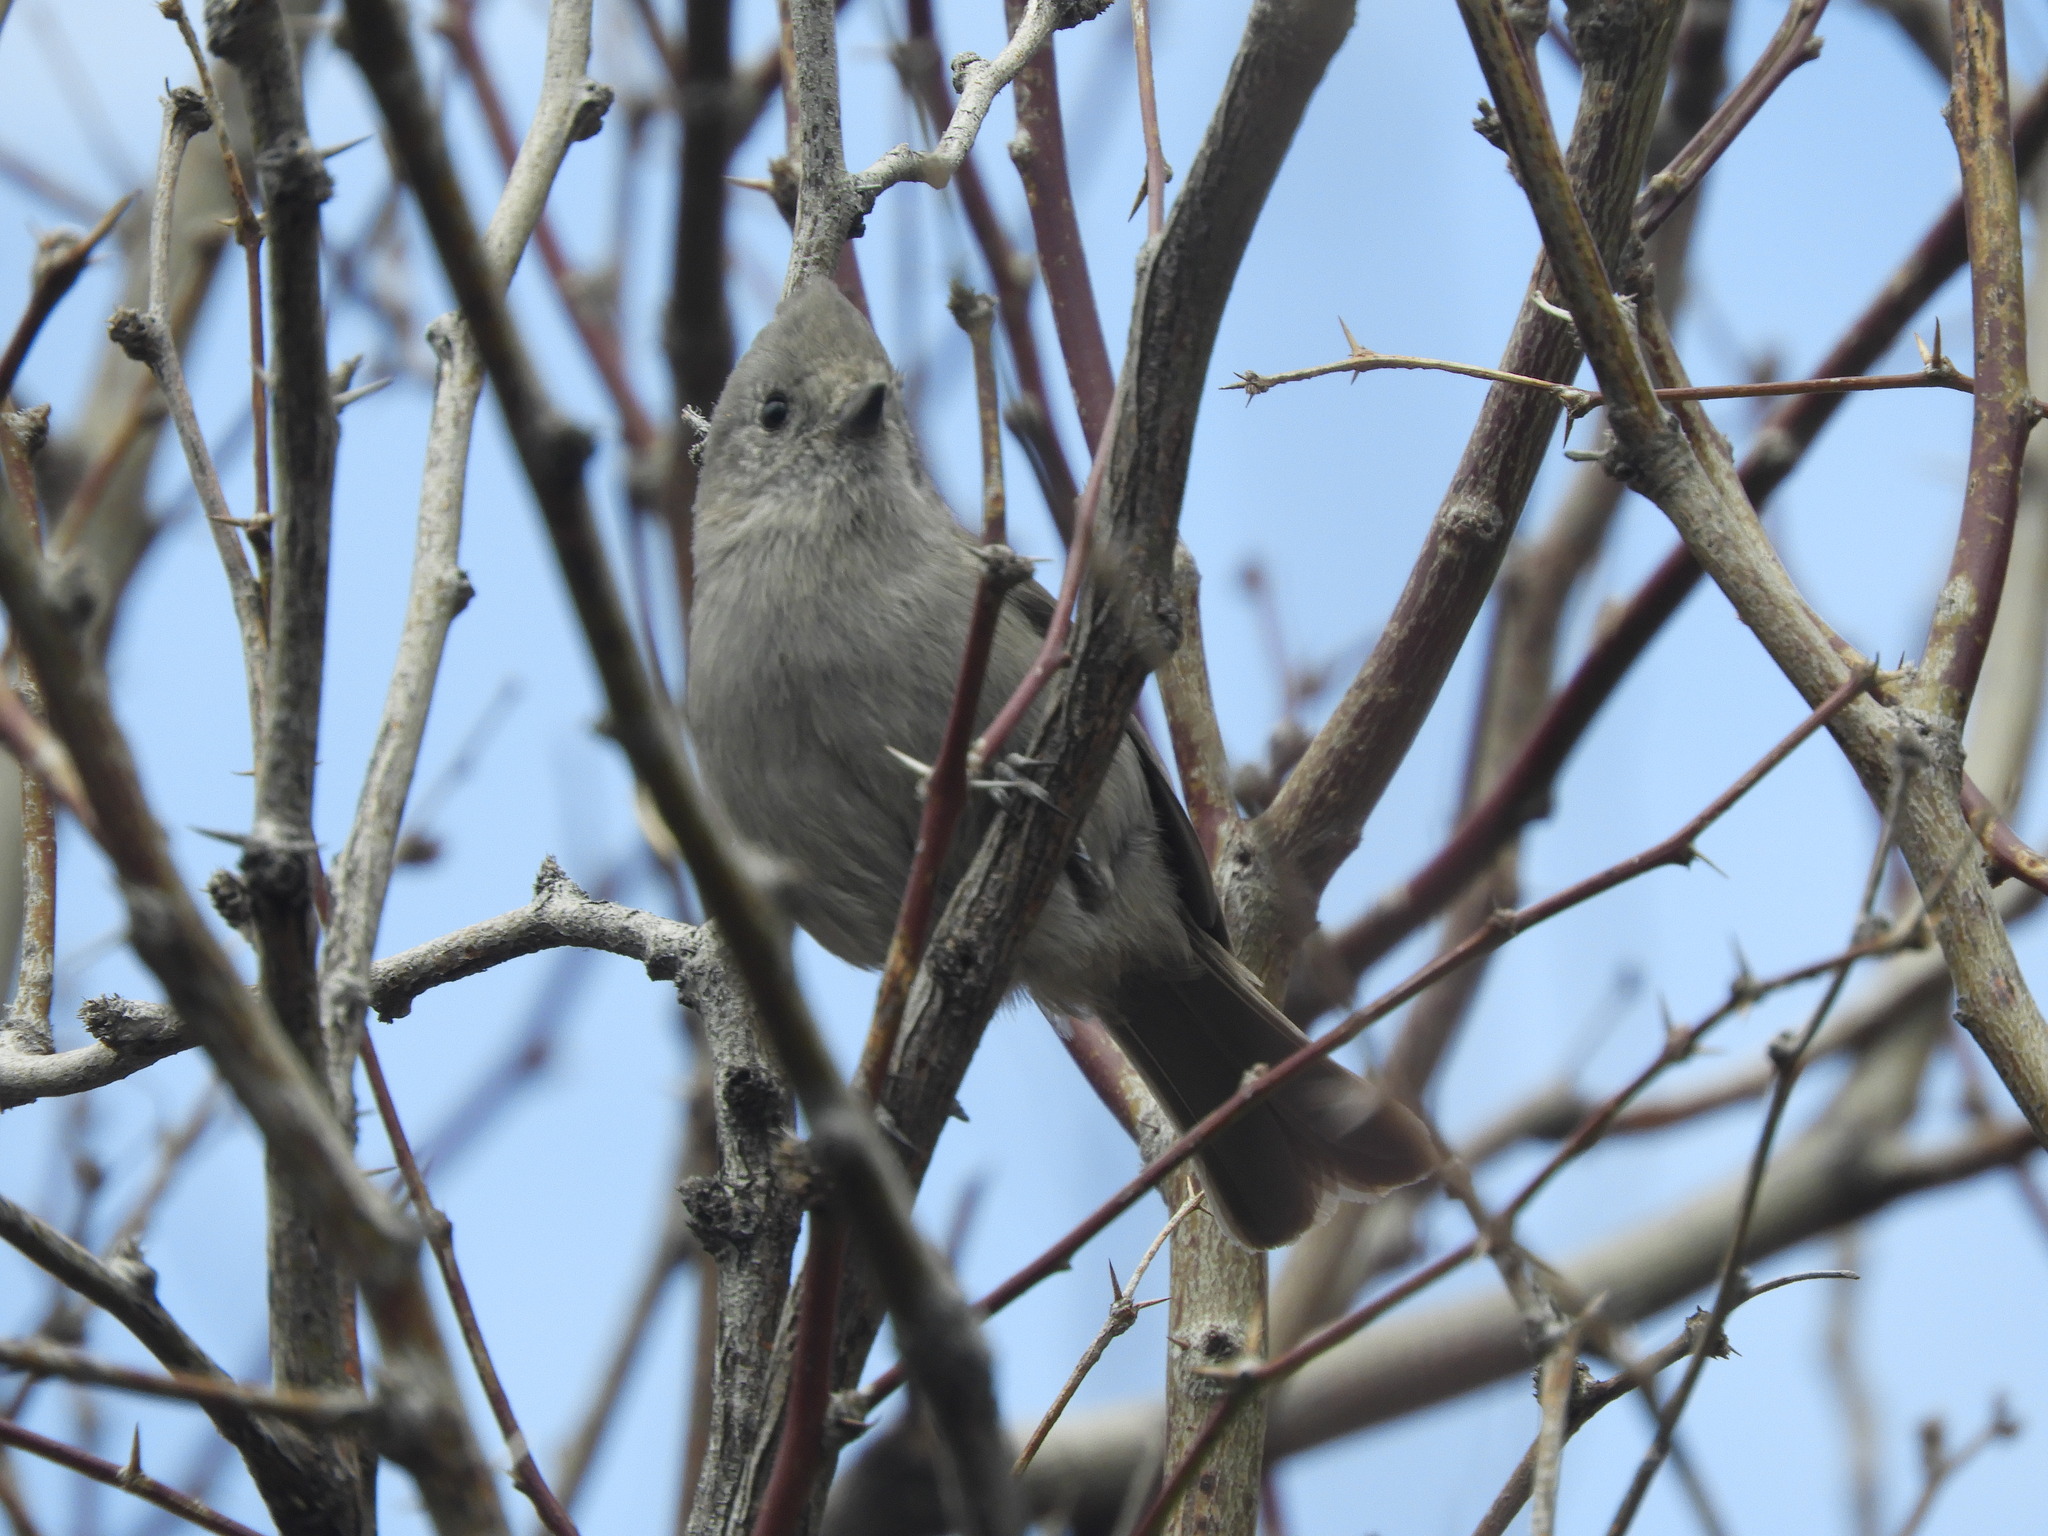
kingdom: Animalia
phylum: Chordata
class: Aves
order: Passeriformes
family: Paridae
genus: Baeolophus
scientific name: Baeolophus inornatus
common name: Oak titmouse
